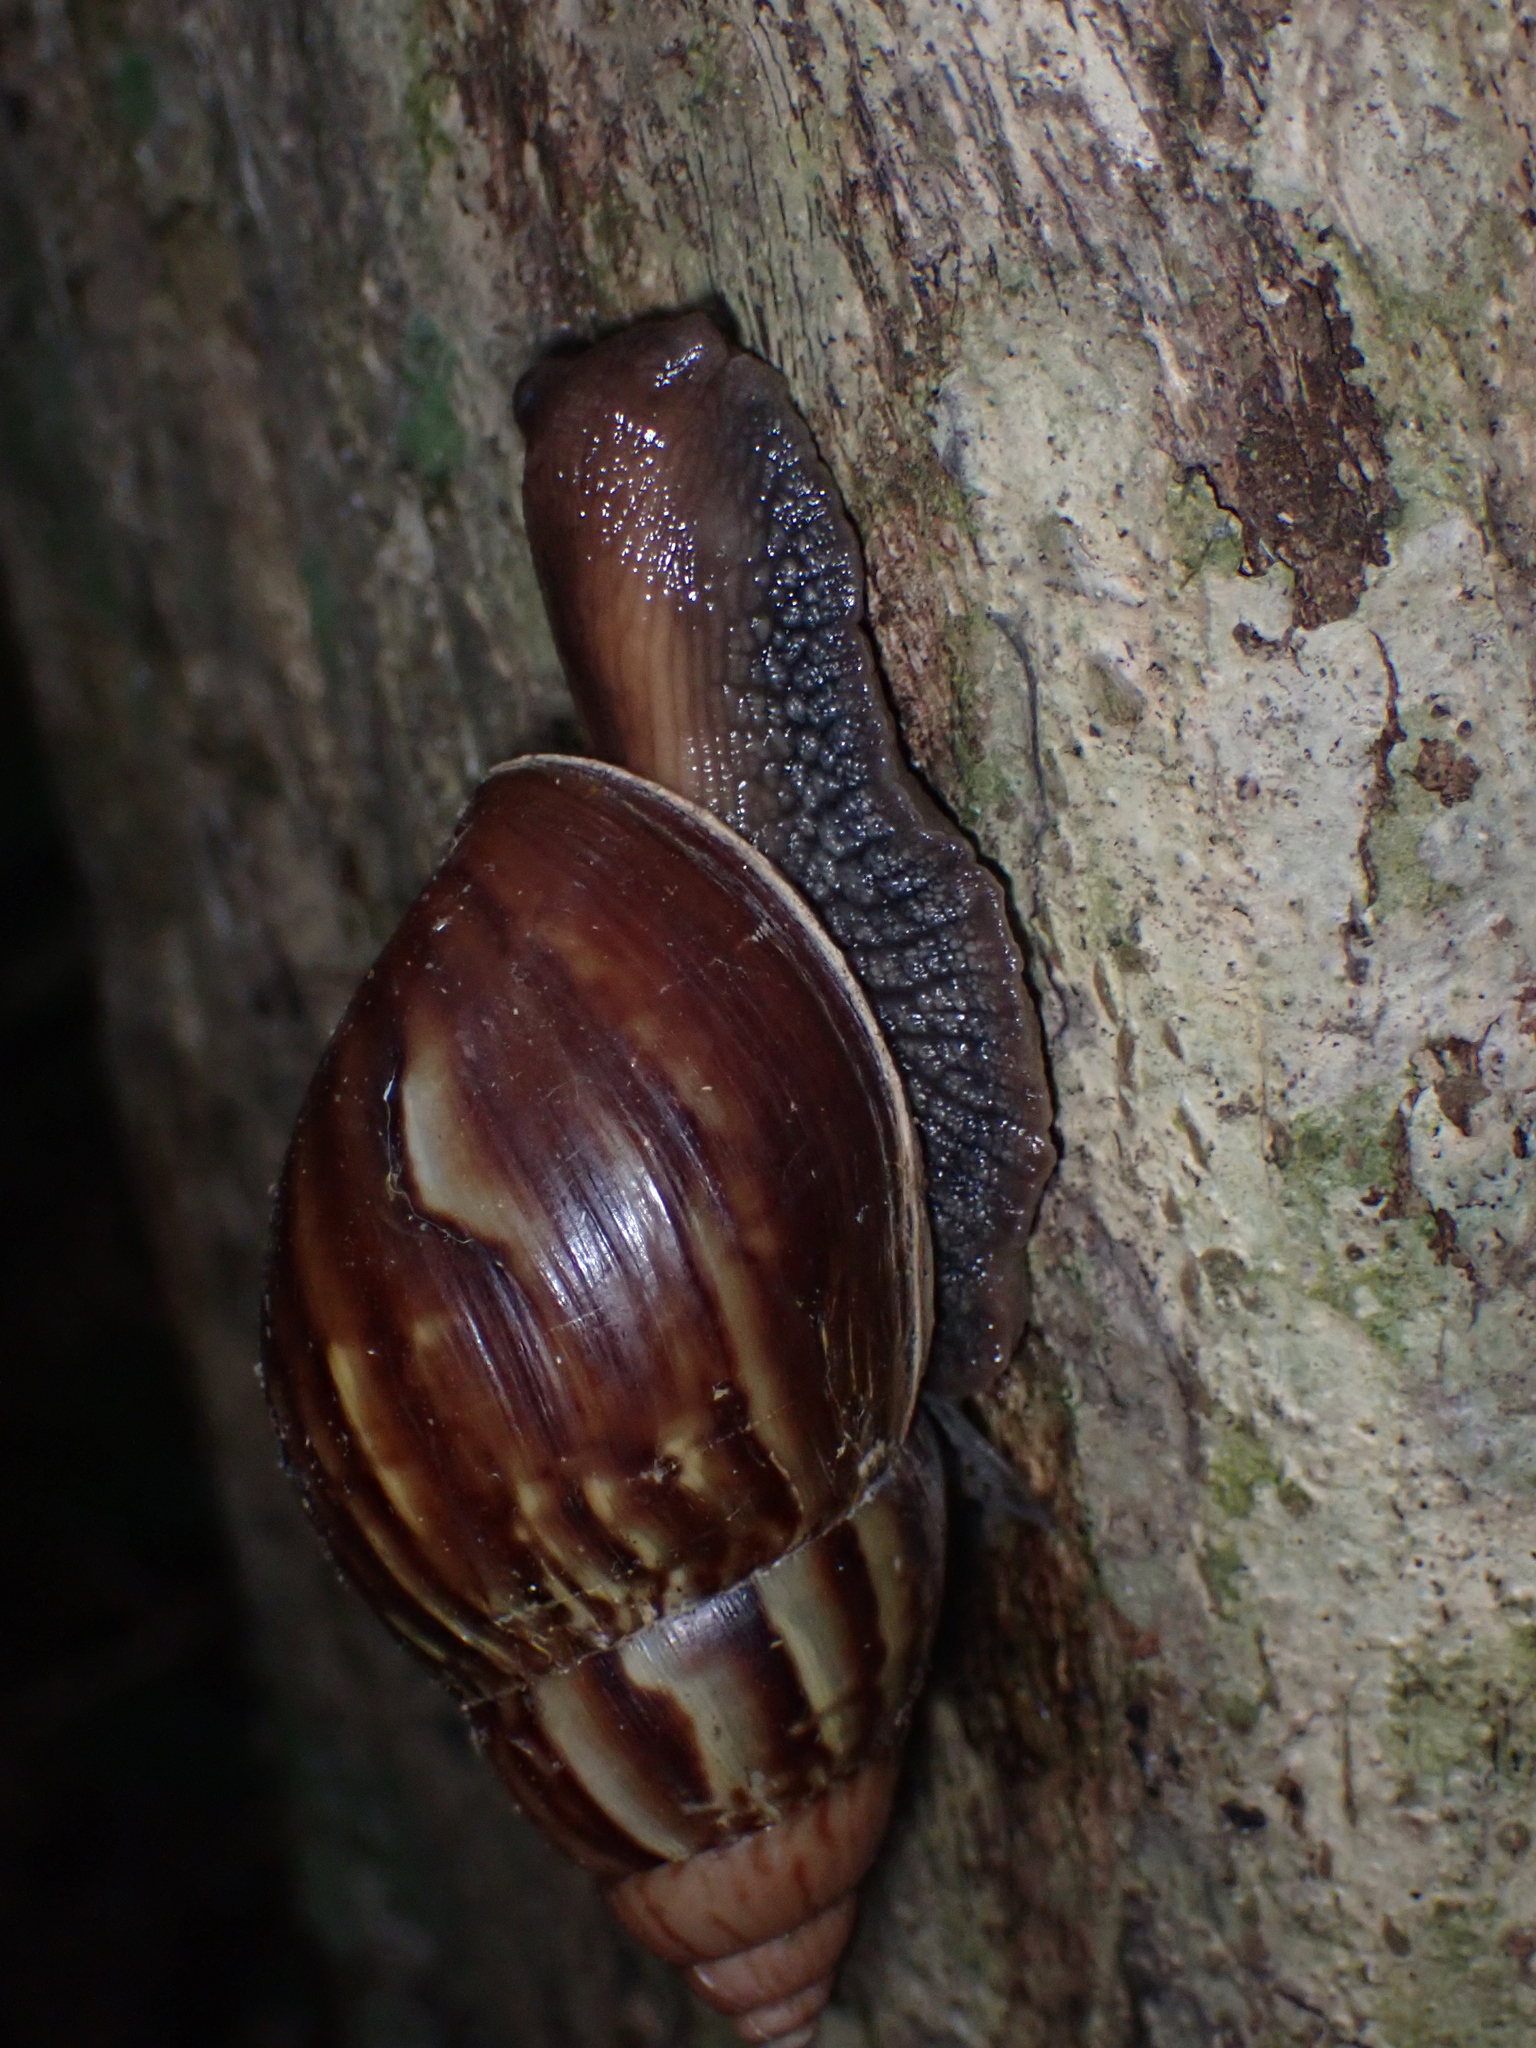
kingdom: Animalia
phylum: Mollusca
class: Gastropoda
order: Stylommatophora
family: Achatinidae
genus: Lissachatina
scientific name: Lissachatina fulica
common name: Giant african snail
